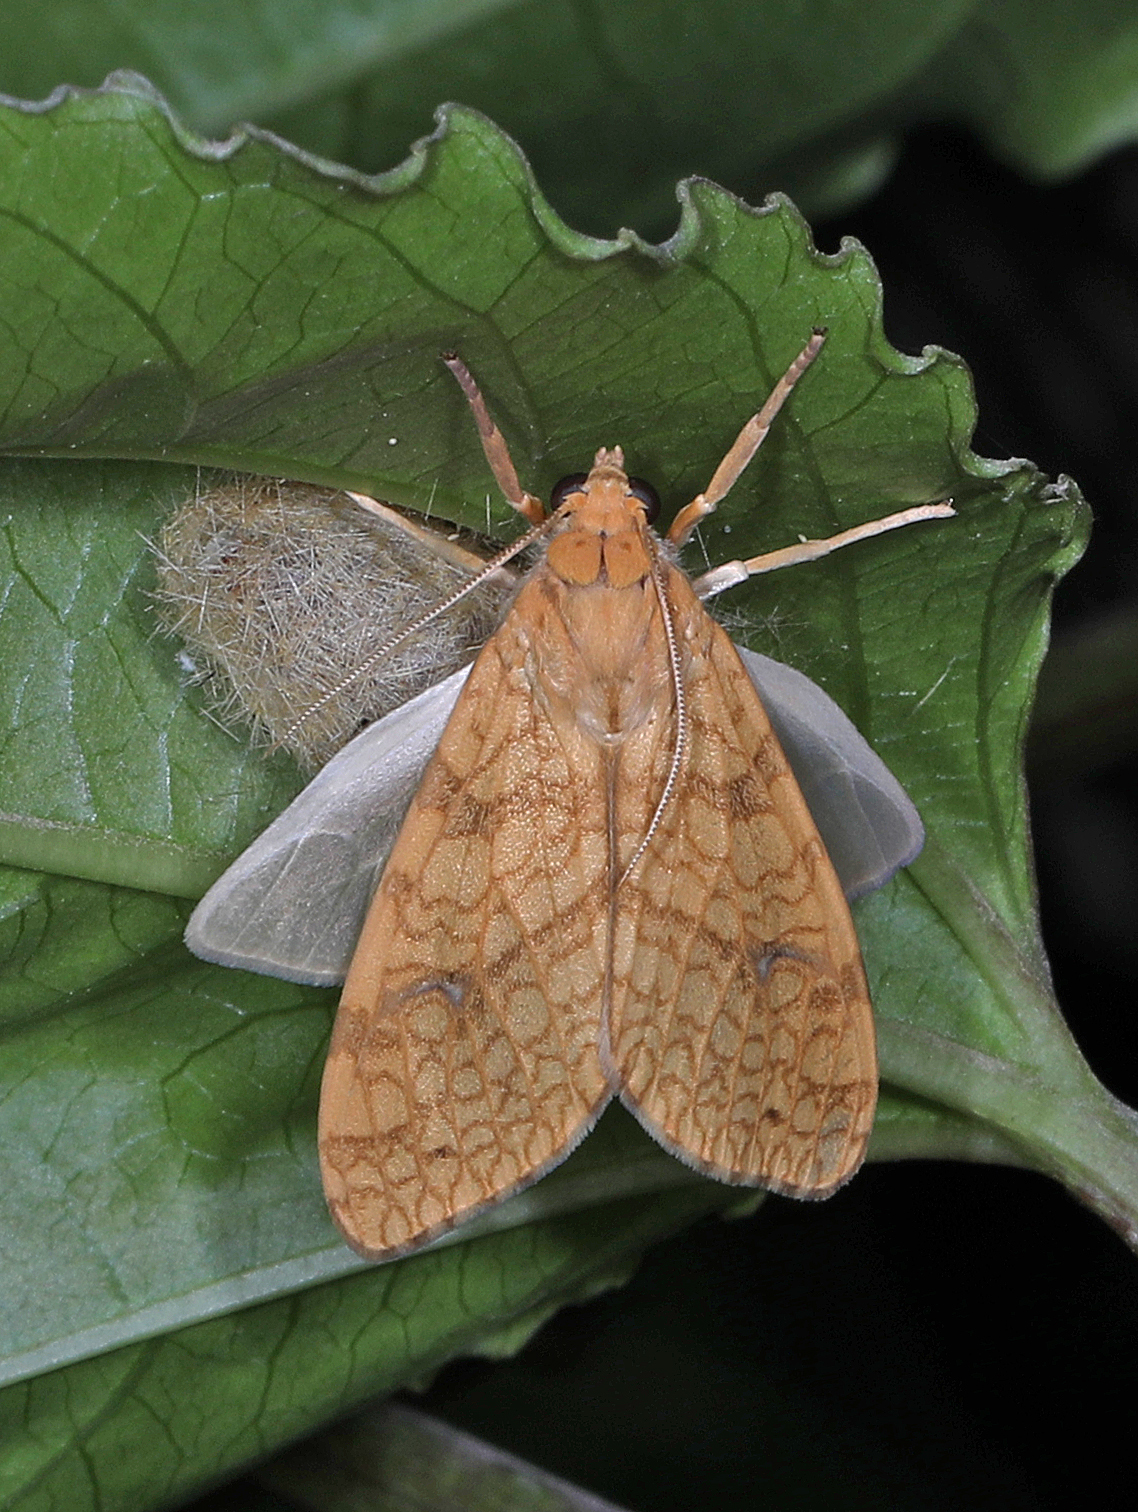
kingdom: Animalia
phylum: Arthropoda
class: Insecta
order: Lepidoptera
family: Erebidae
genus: Lophocampa
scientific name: Lophocampa annulosa
